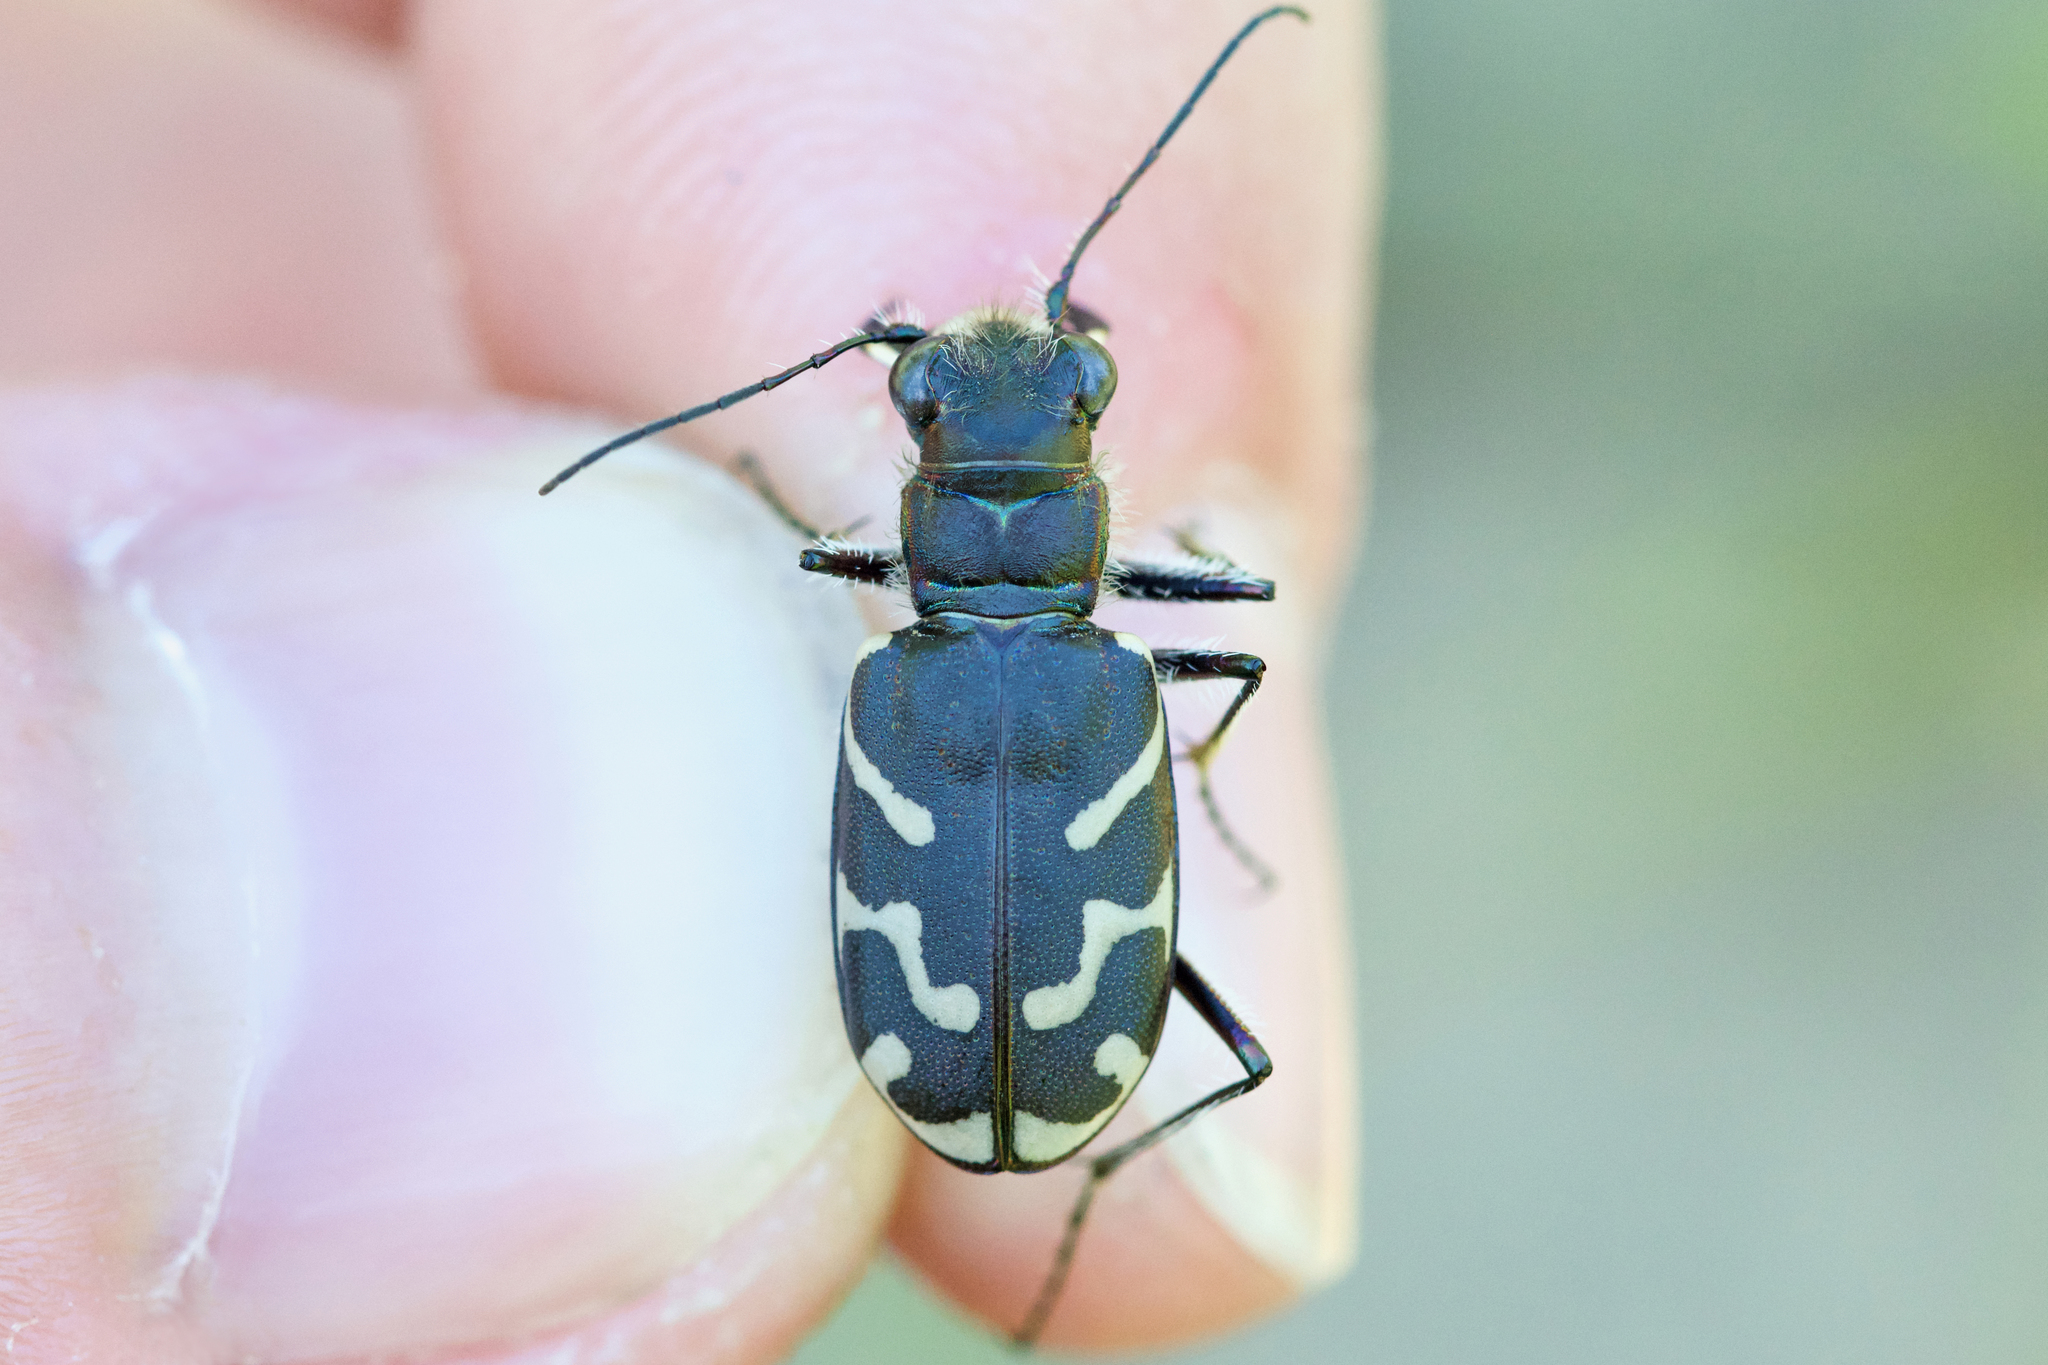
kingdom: Animalia
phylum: Arthropoda
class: Insecta
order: Coleoptera
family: Carabidae
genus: Cicindela
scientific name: Cicindela tranquebarica
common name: Oblique-lined tiger beetle
